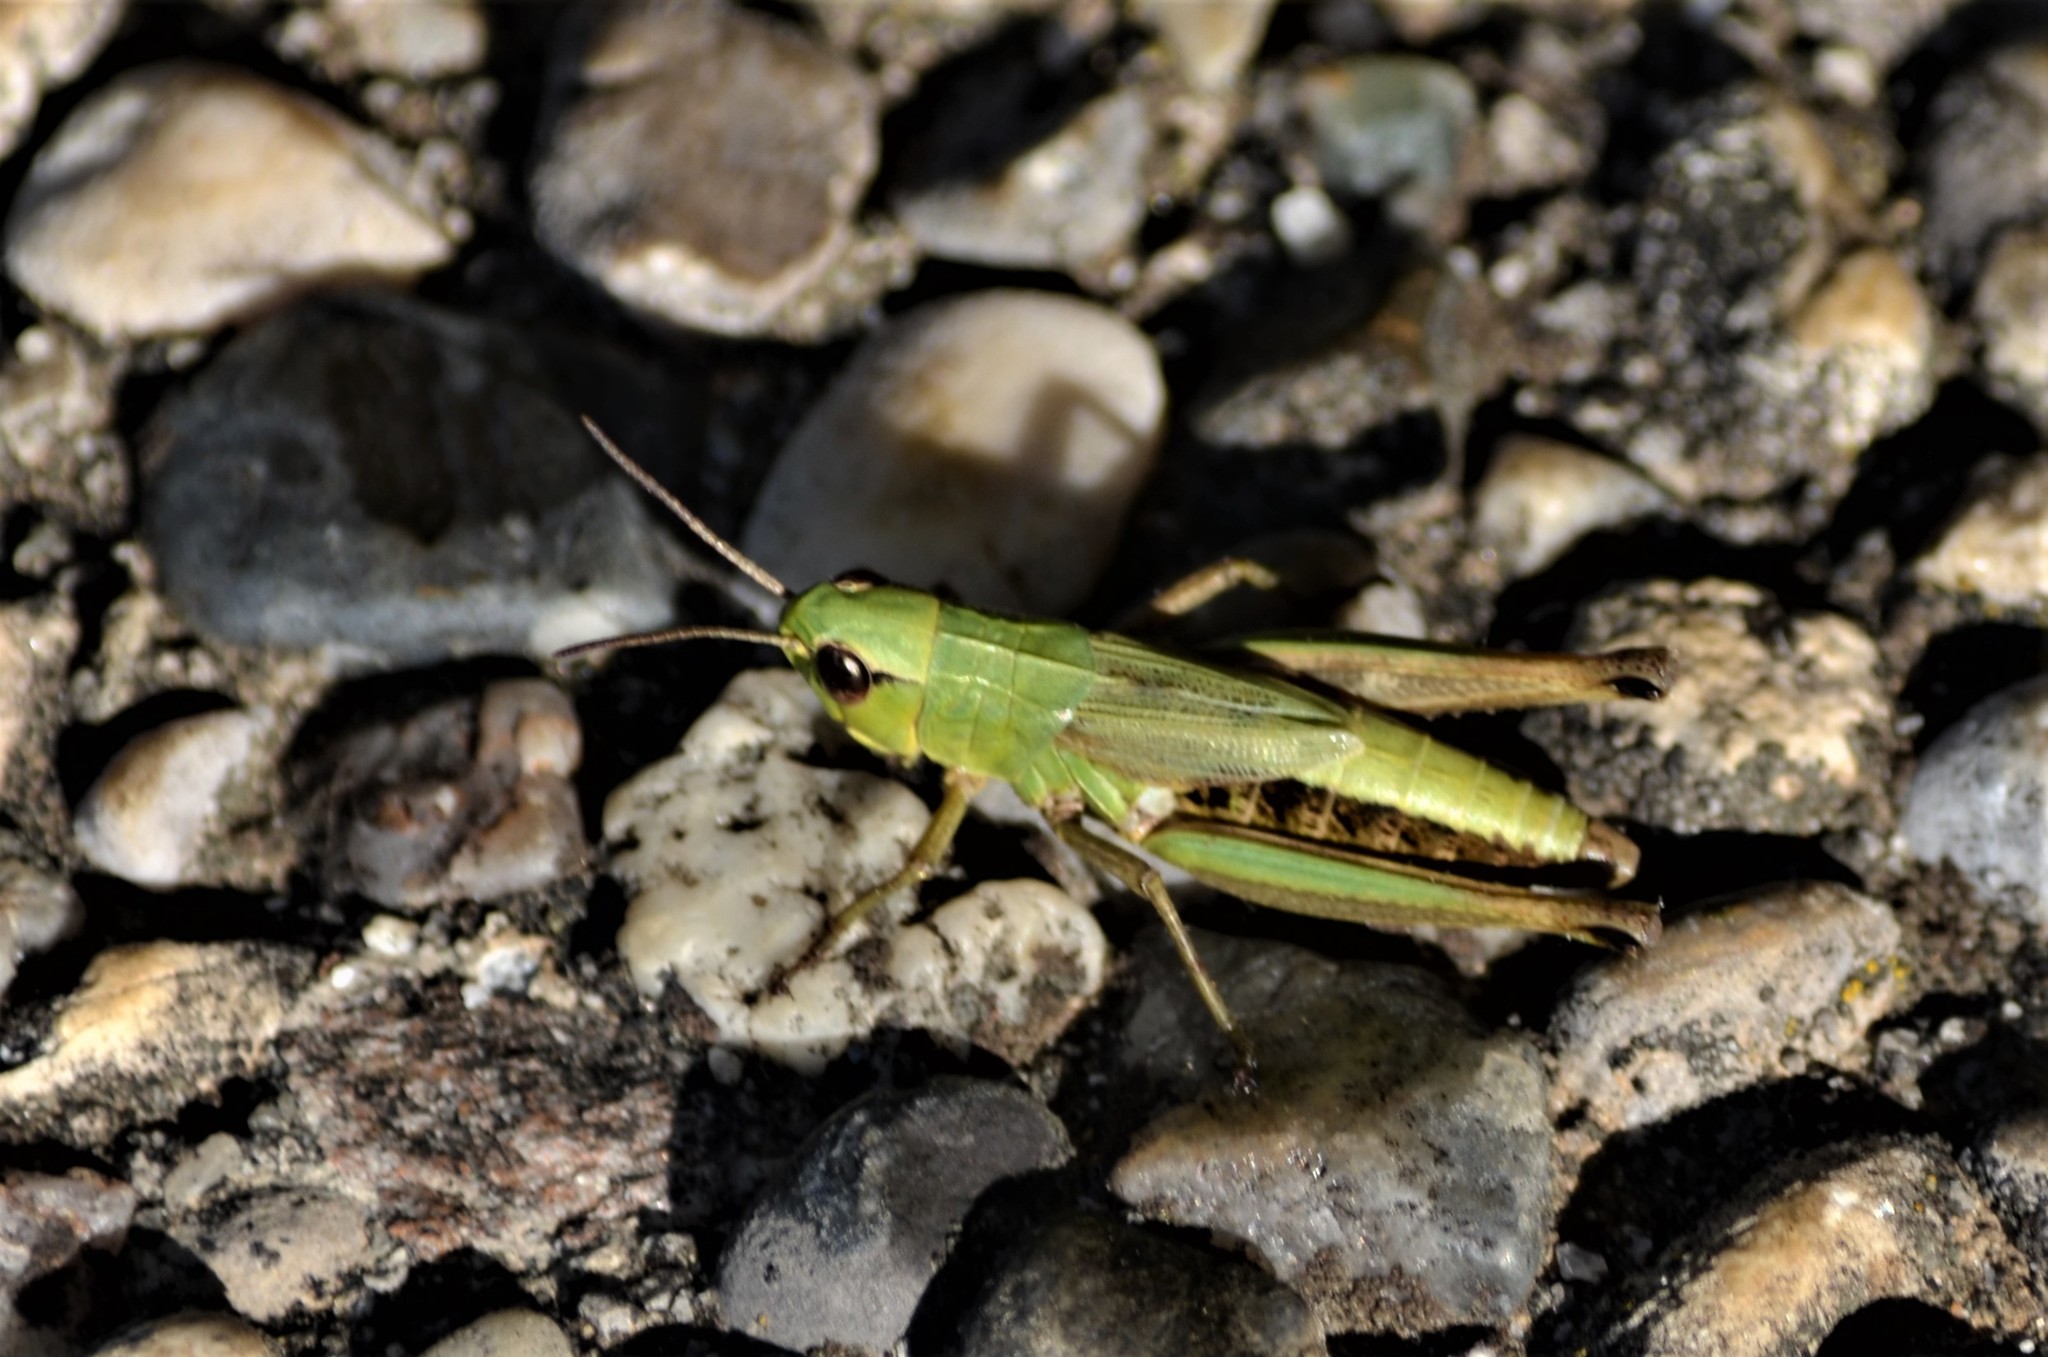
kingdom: Animalia
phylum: Arthropoda
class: Insecta
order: Orthoptera
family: Acrididae
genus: Pseudochorthippus
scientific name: Pseudochorthippus parallelus
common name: Meadow grasshopper
